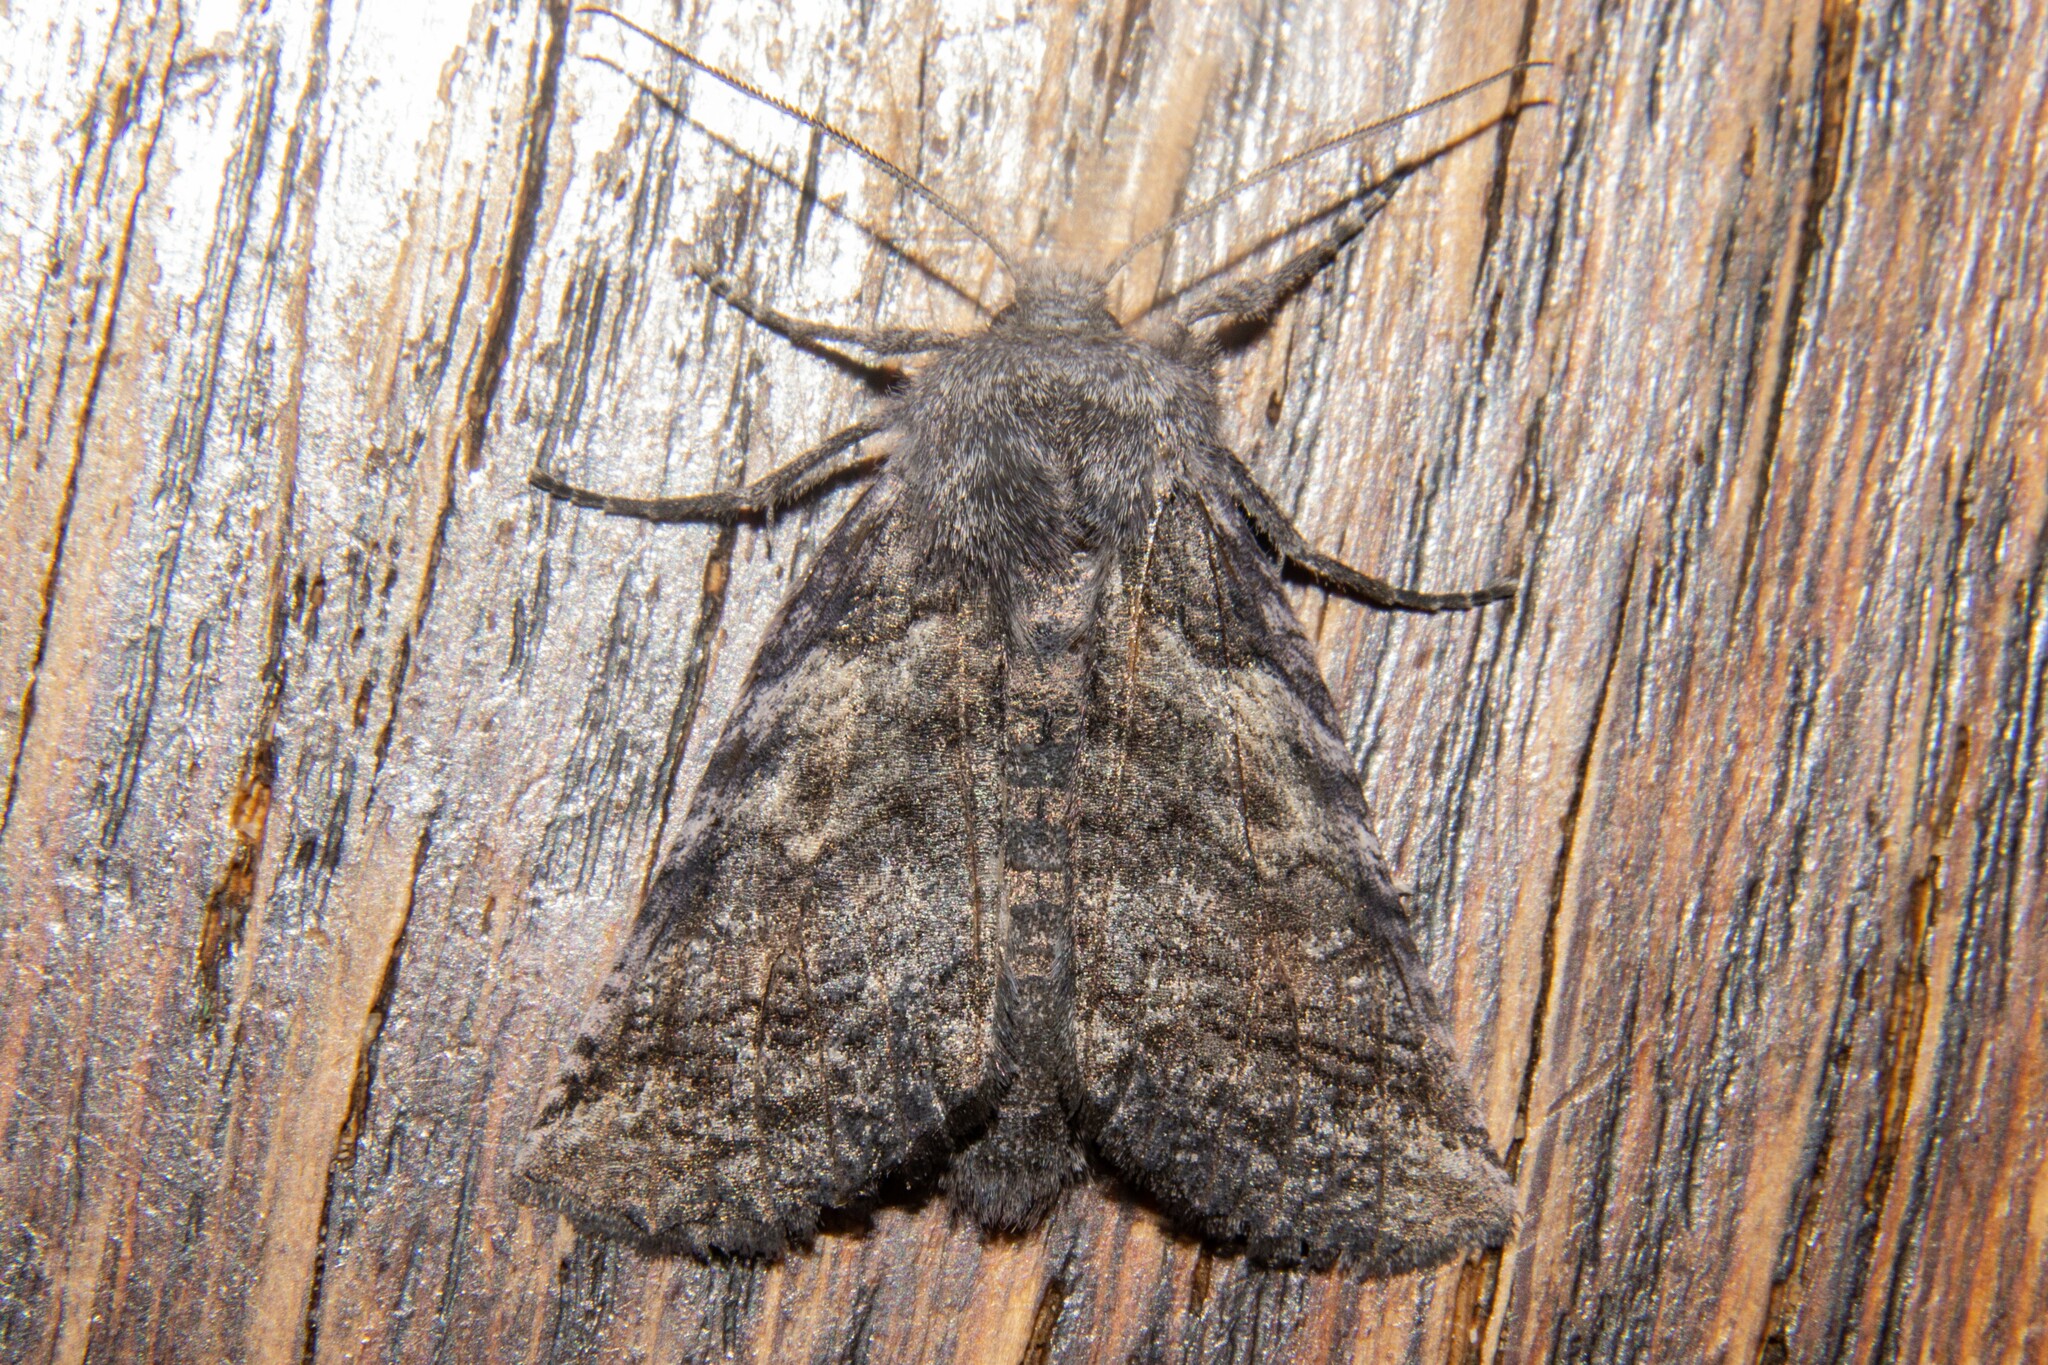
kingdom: Animalia
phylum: Arthropoda
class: Insecta
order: Lepidoptera
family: Geometridae
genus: Declana
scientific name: Declana
